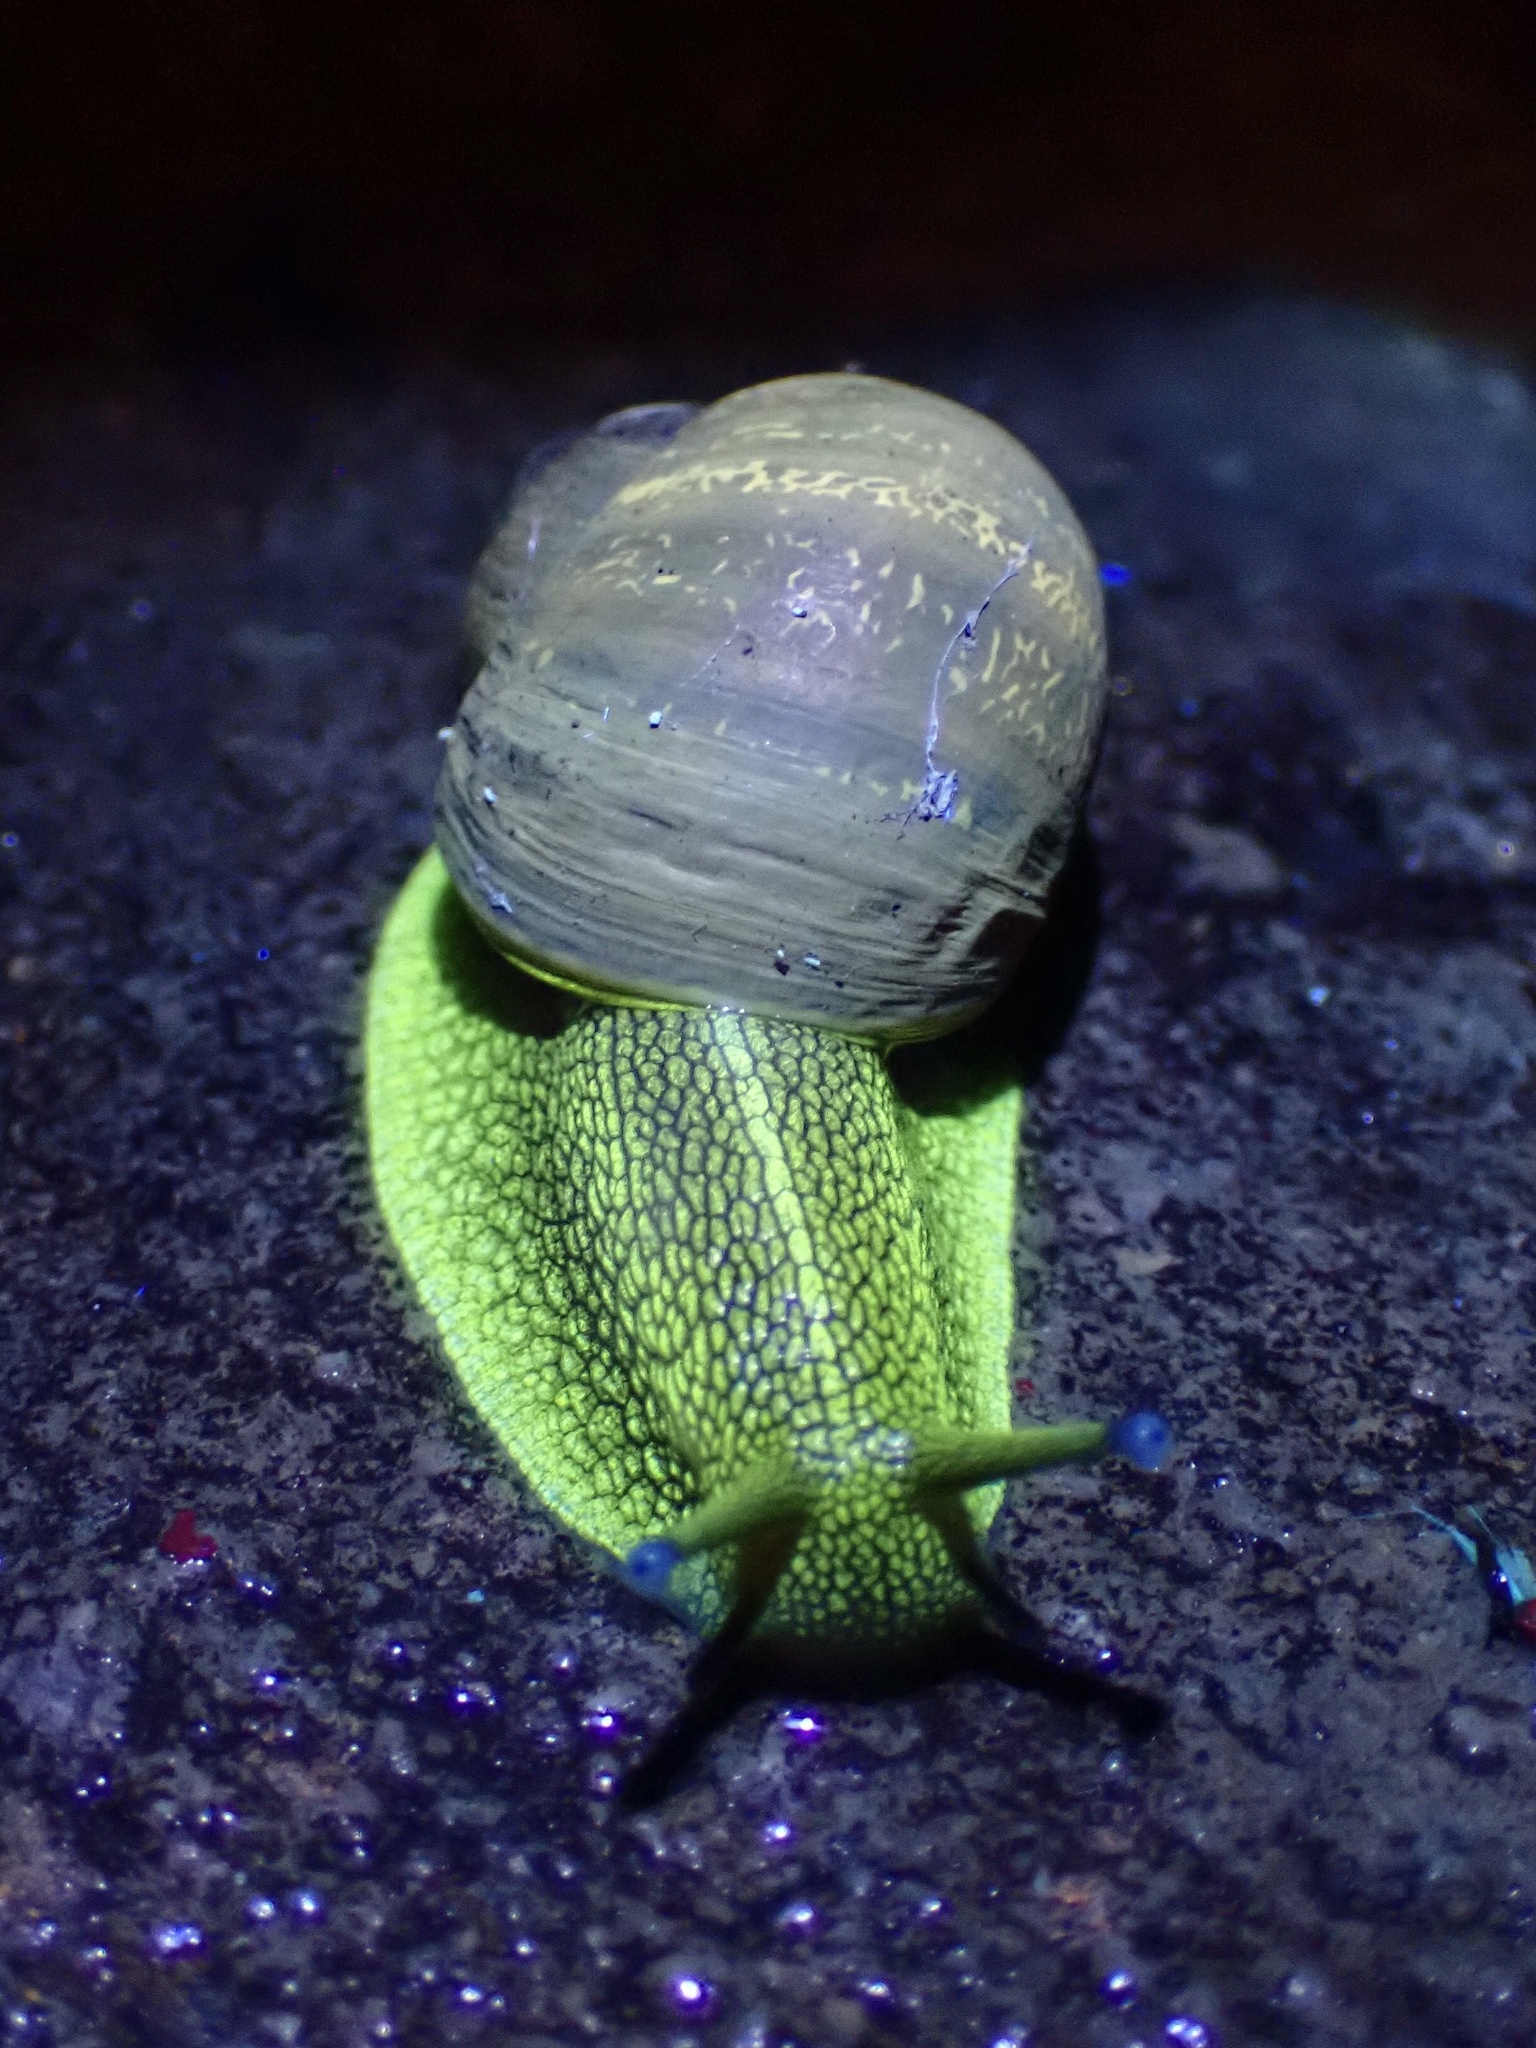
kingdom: Animalia
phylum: Mollusca
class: Gastropoda
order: Stylommatophora
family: Helicidae
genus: Cornu
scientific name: Cornu aspersum
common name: Brown garden snail
